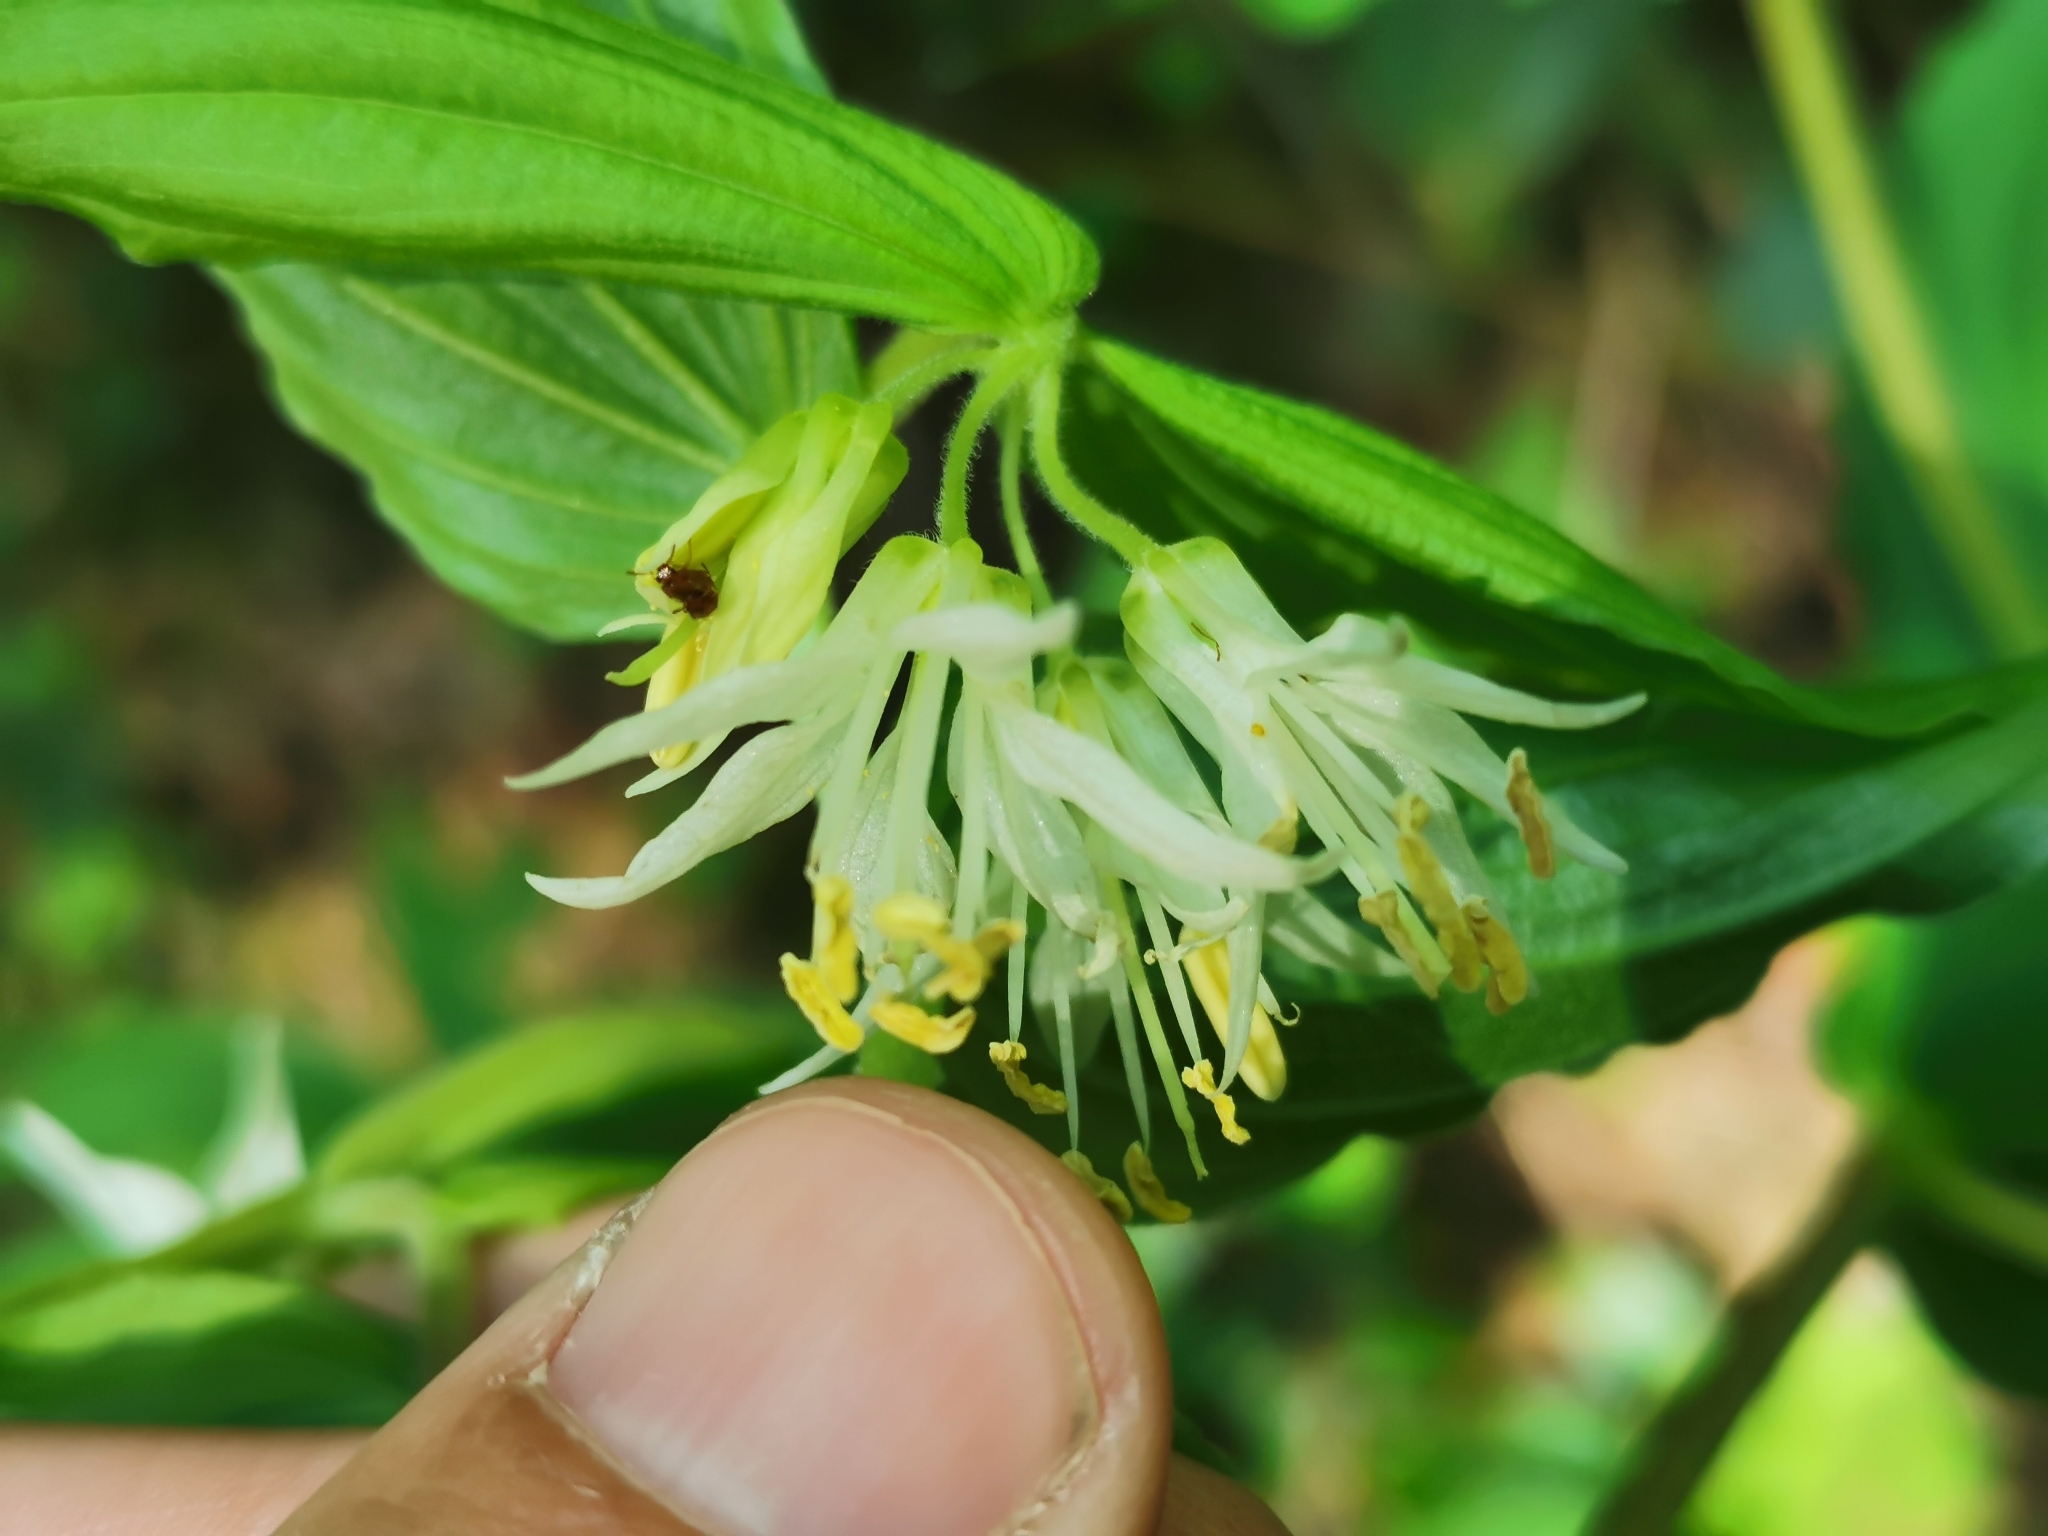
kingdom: Plantae
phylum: Tracheophyta
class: Liliopsida
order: Liliales
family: Liliaceae
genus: Prosartes
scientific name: Prosartes hookeri
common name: Fairy-bells
